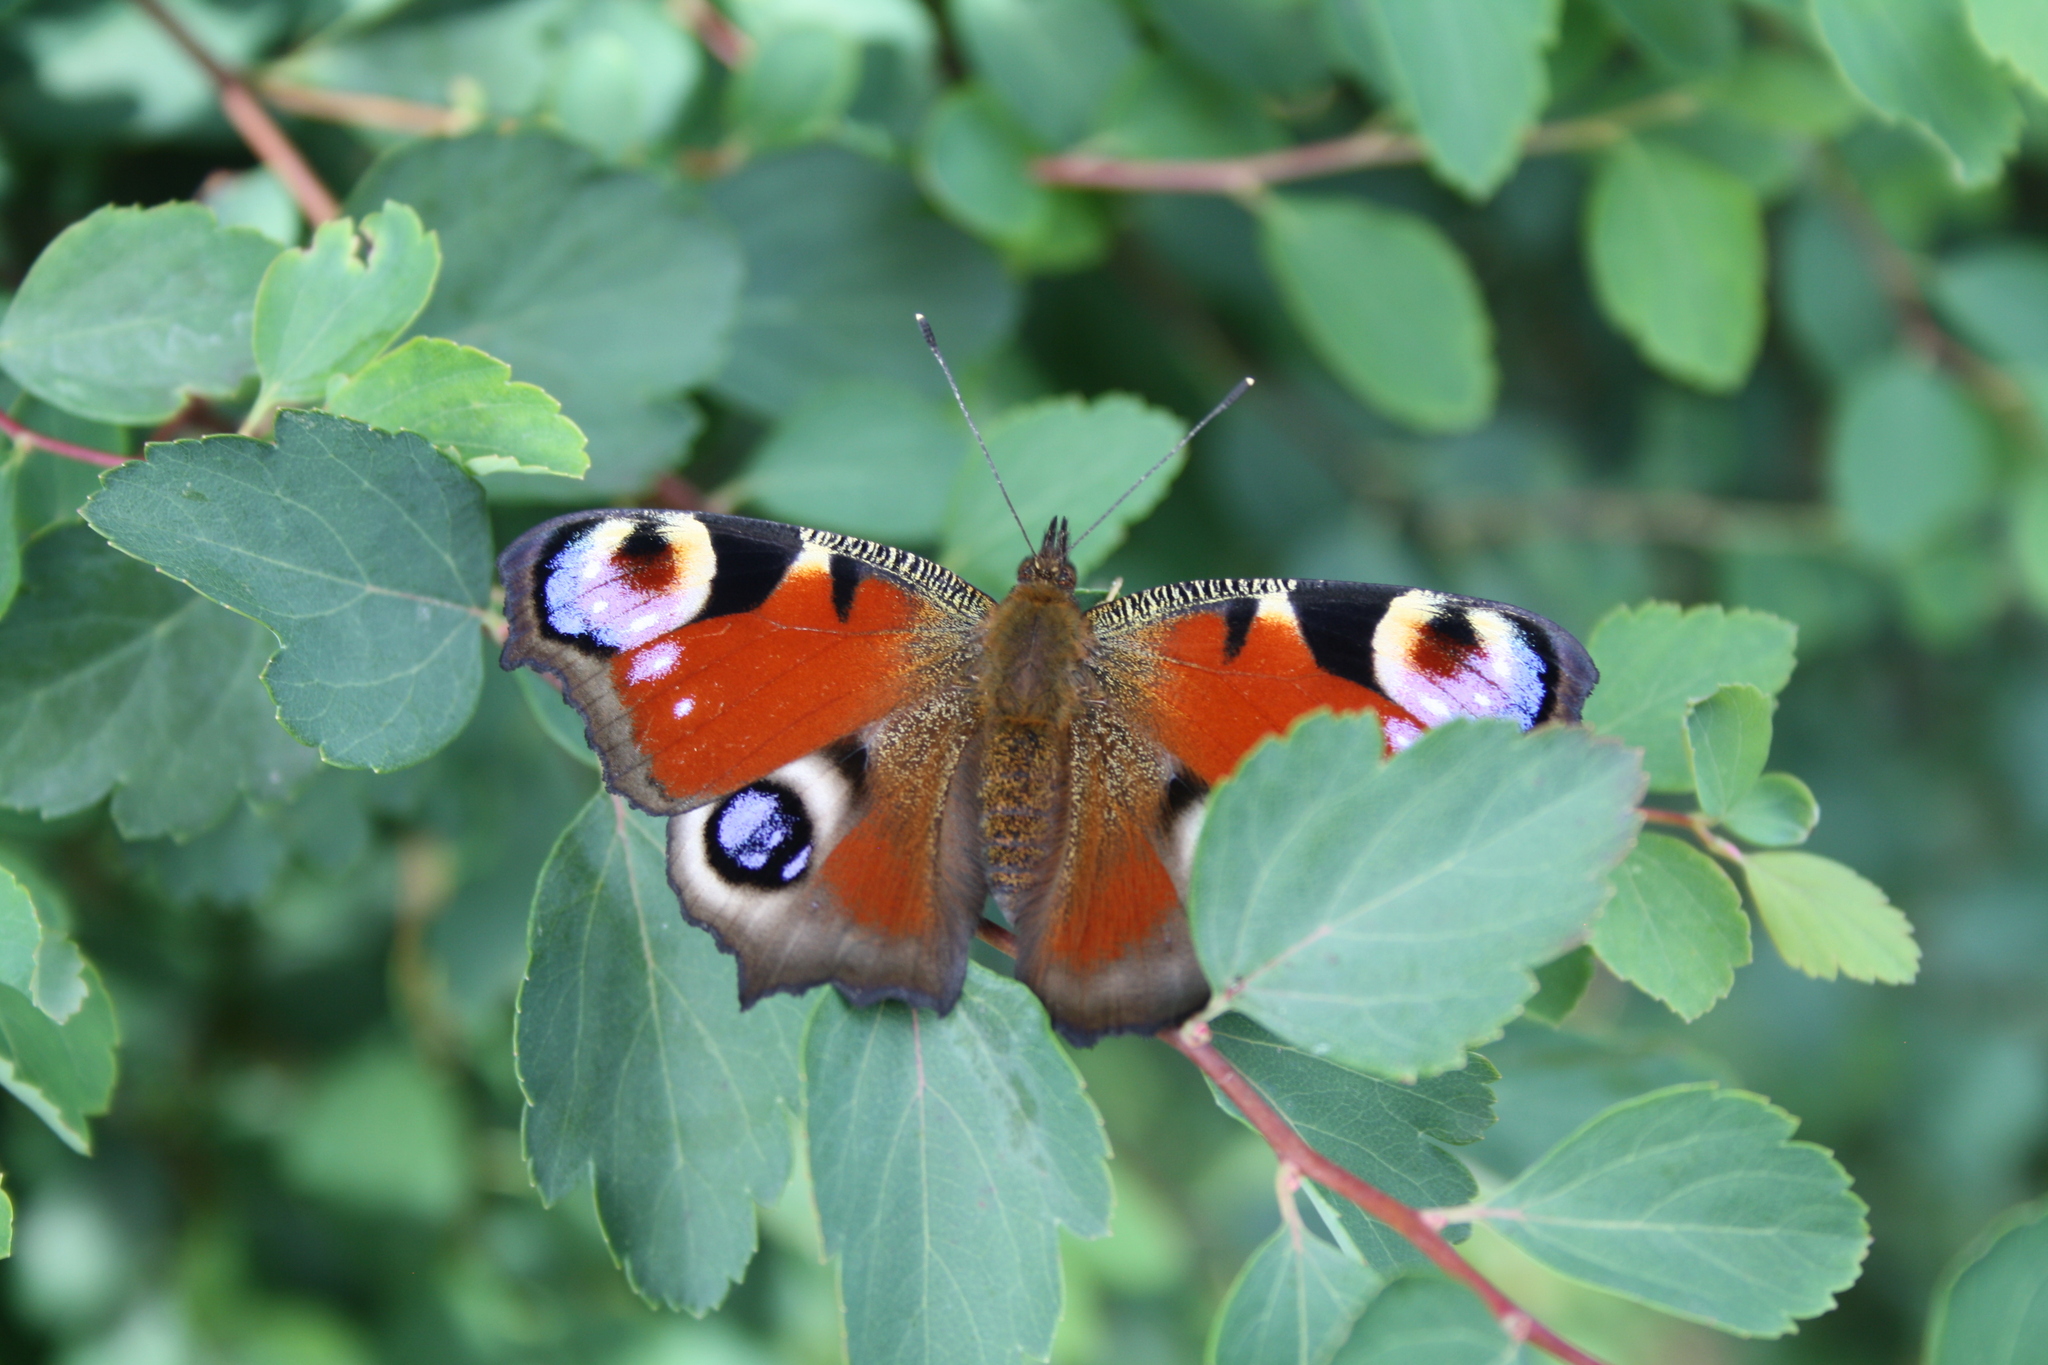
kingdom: Animalia
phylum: Arthropoda
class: Insecta
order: Lepidoptera
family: Nymphalidae
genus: Aglais
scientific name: Aglais io
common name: Peacock
